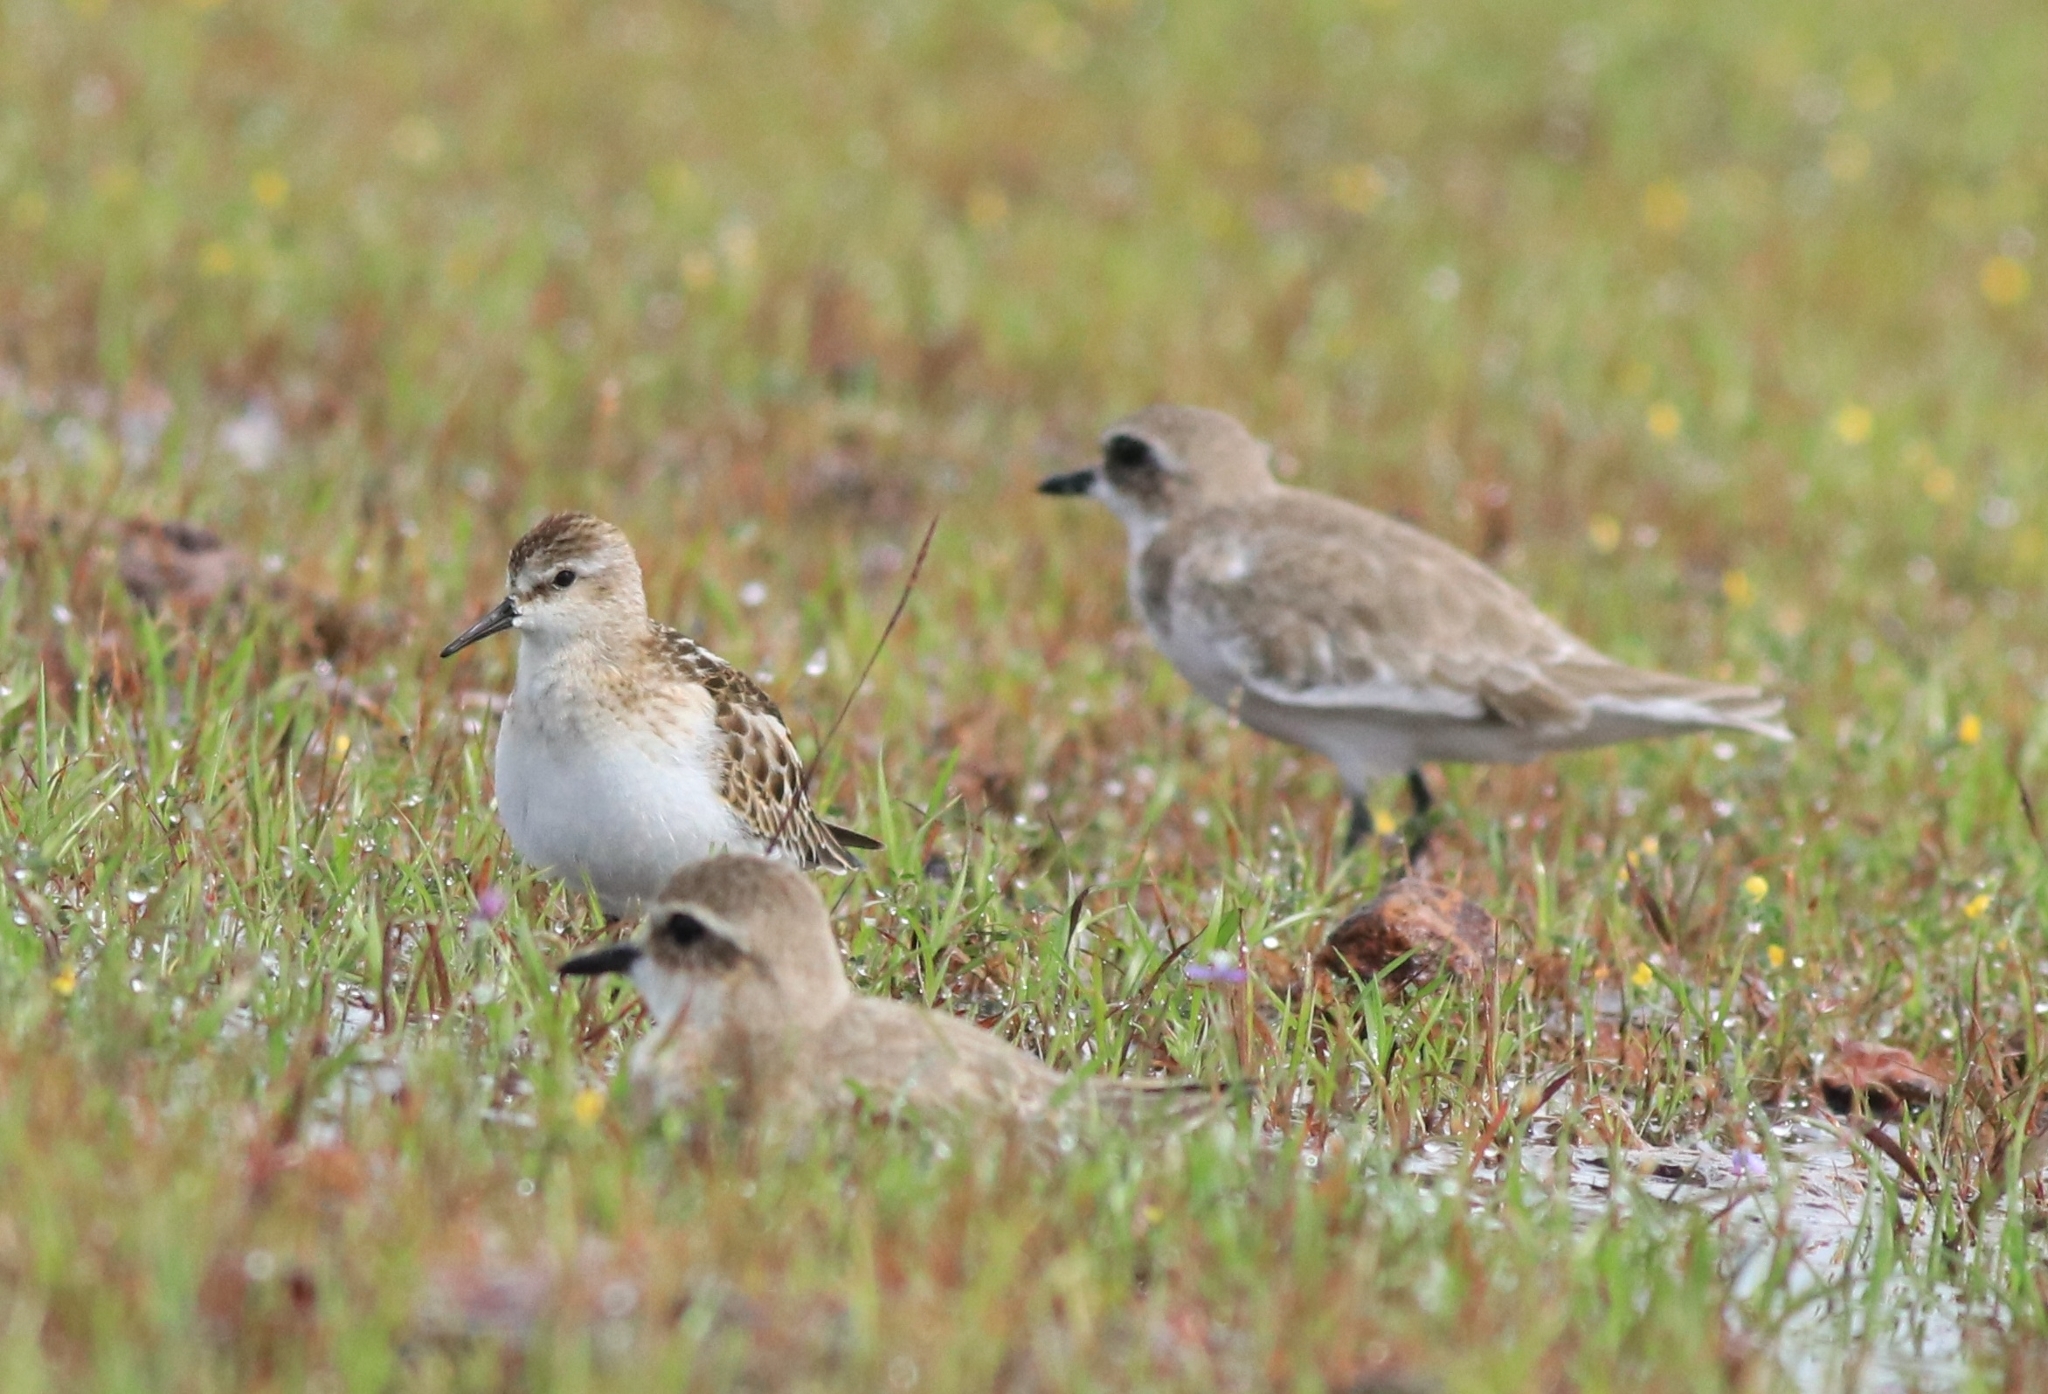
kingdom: Animalia
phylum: Chordata
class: Aves
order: Charadriiformes
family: Scolopacidae
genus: Calidris
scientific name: Calidris minuta
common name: Little stint
